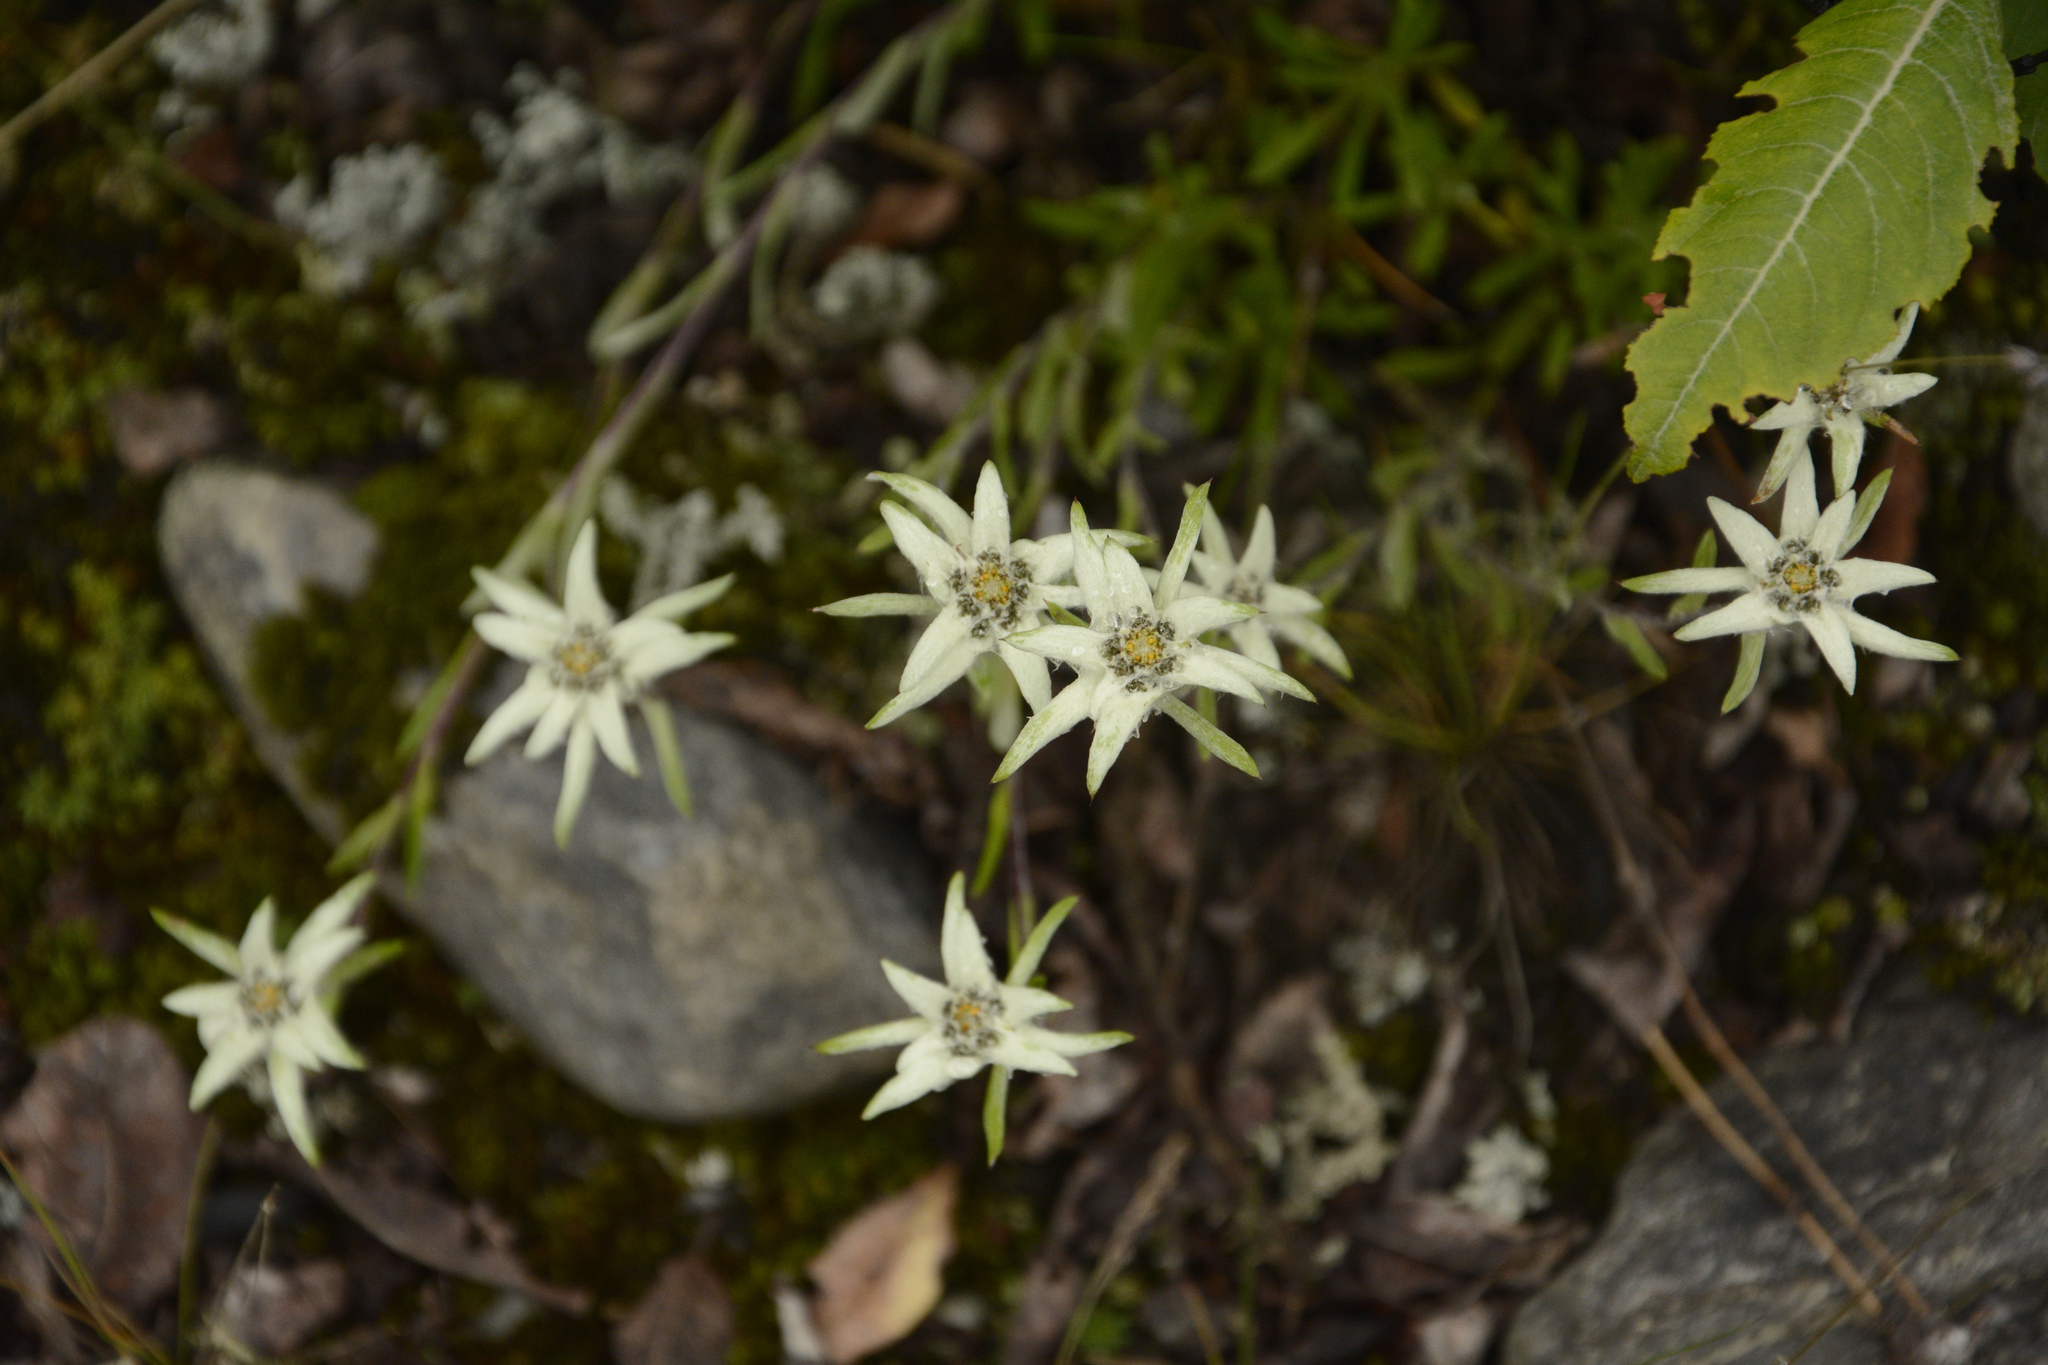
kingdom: Plantae
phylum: Tracheophyta
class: Magnoliopsida
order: Asterales
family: Asteraceae
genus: Leontopodium
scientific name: Leontopodium jacotianum
